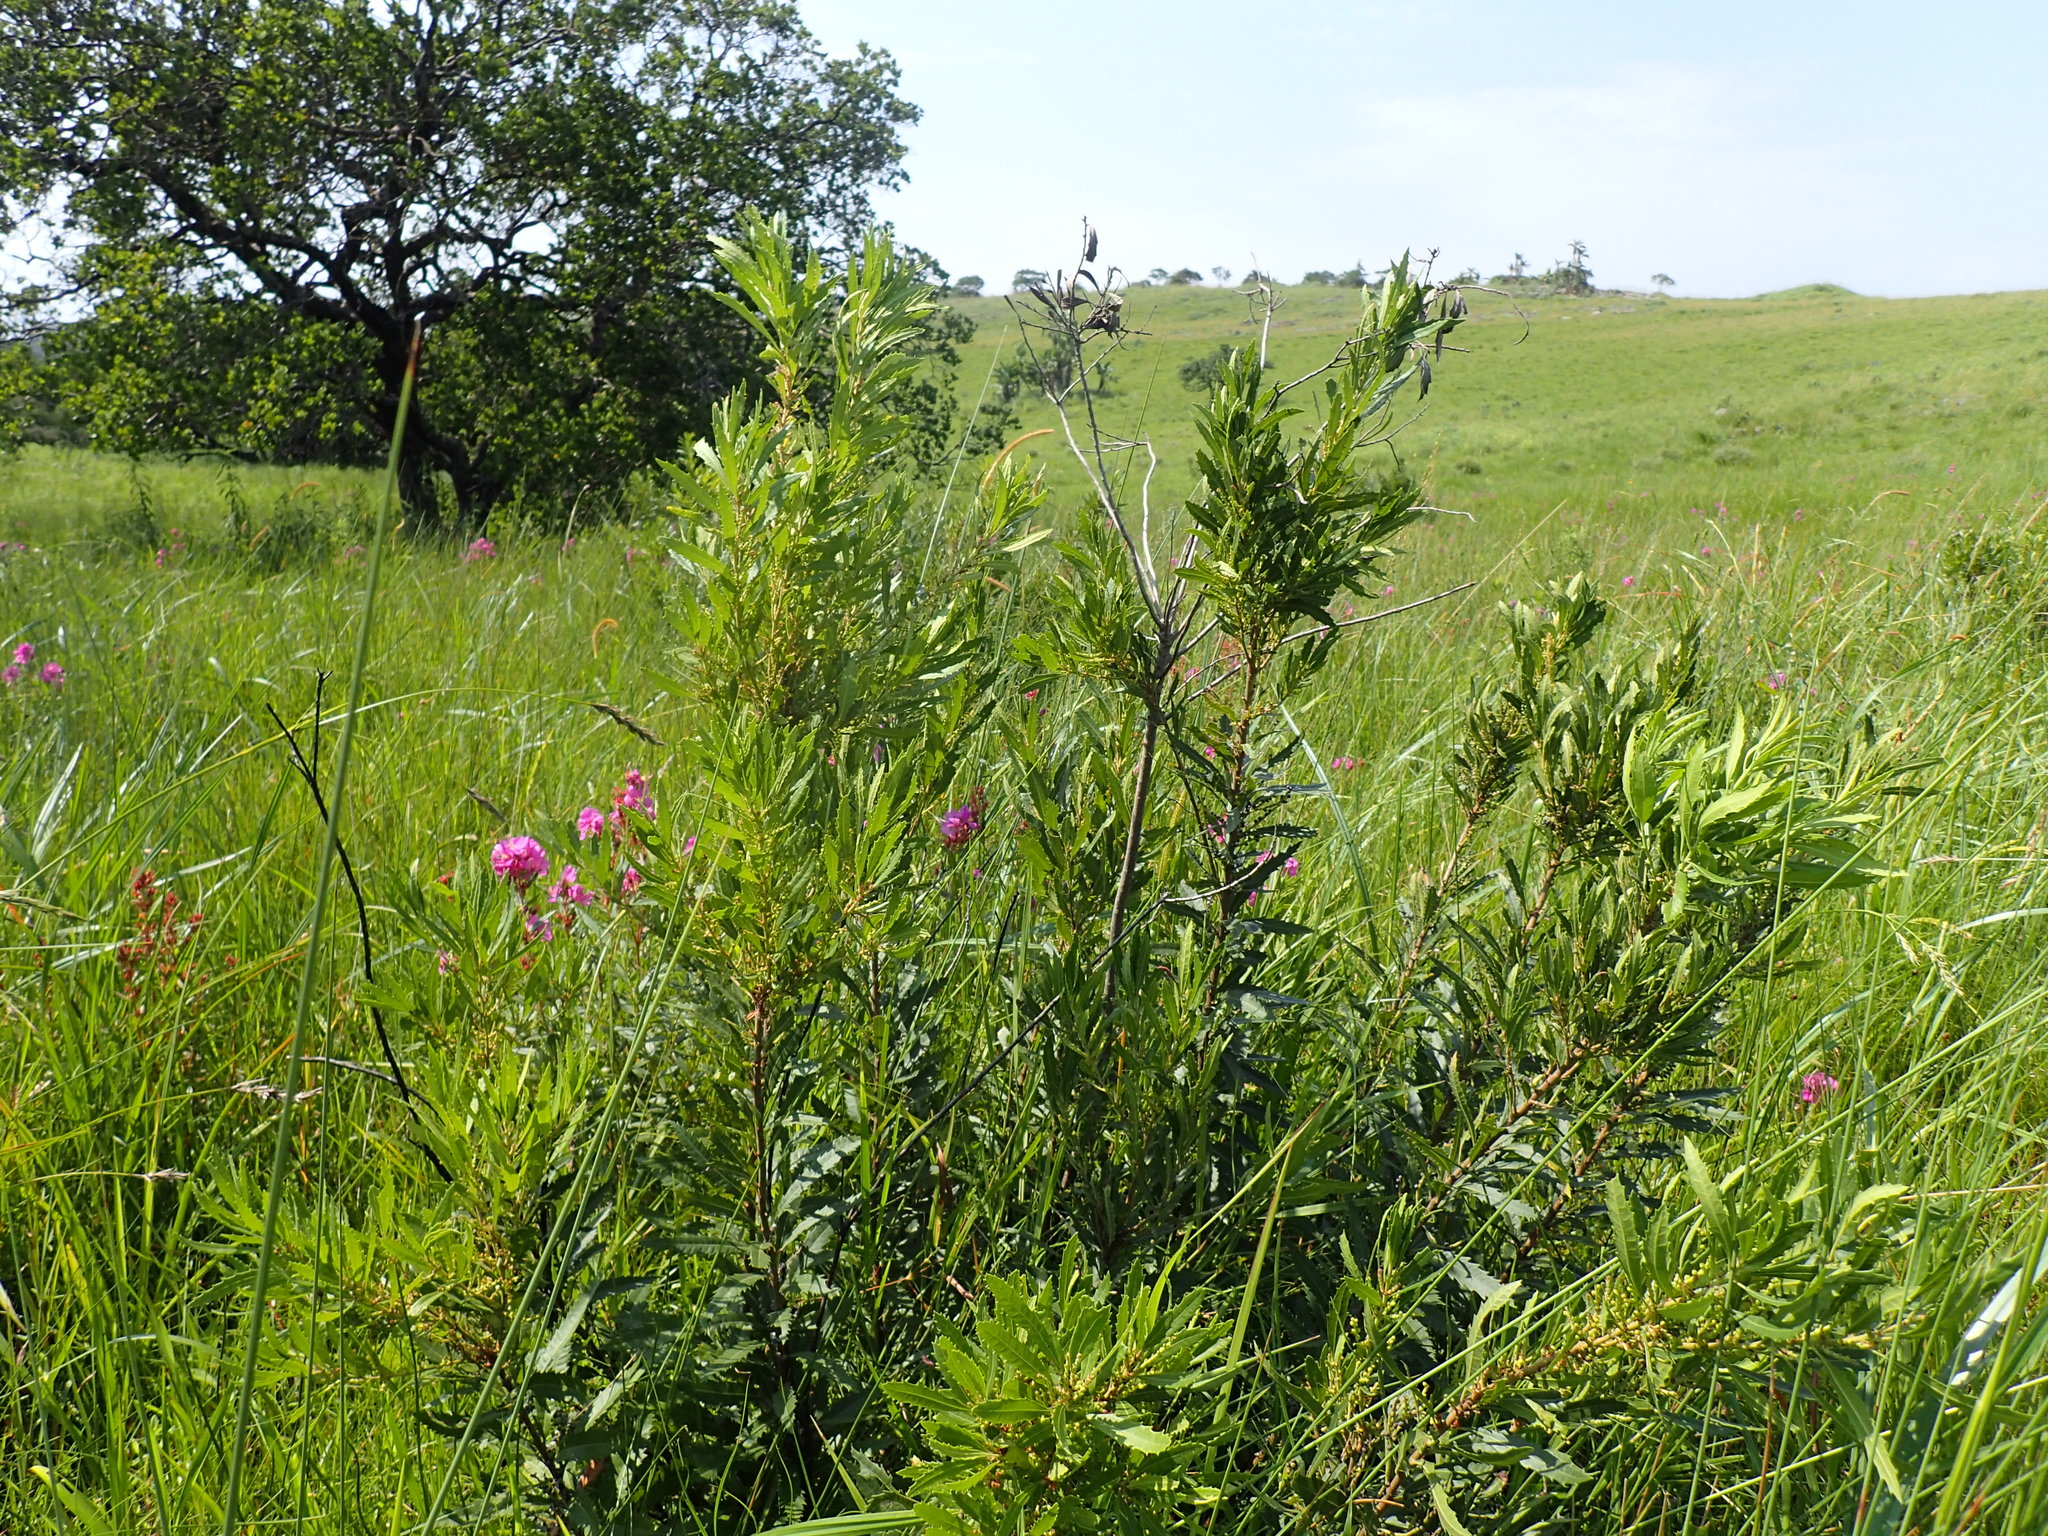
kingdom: Plantae
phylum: Tracheophyta
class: Magnoliopsida
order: Fagales
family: Myricaceae
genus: Morella
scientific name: Morella serrata
